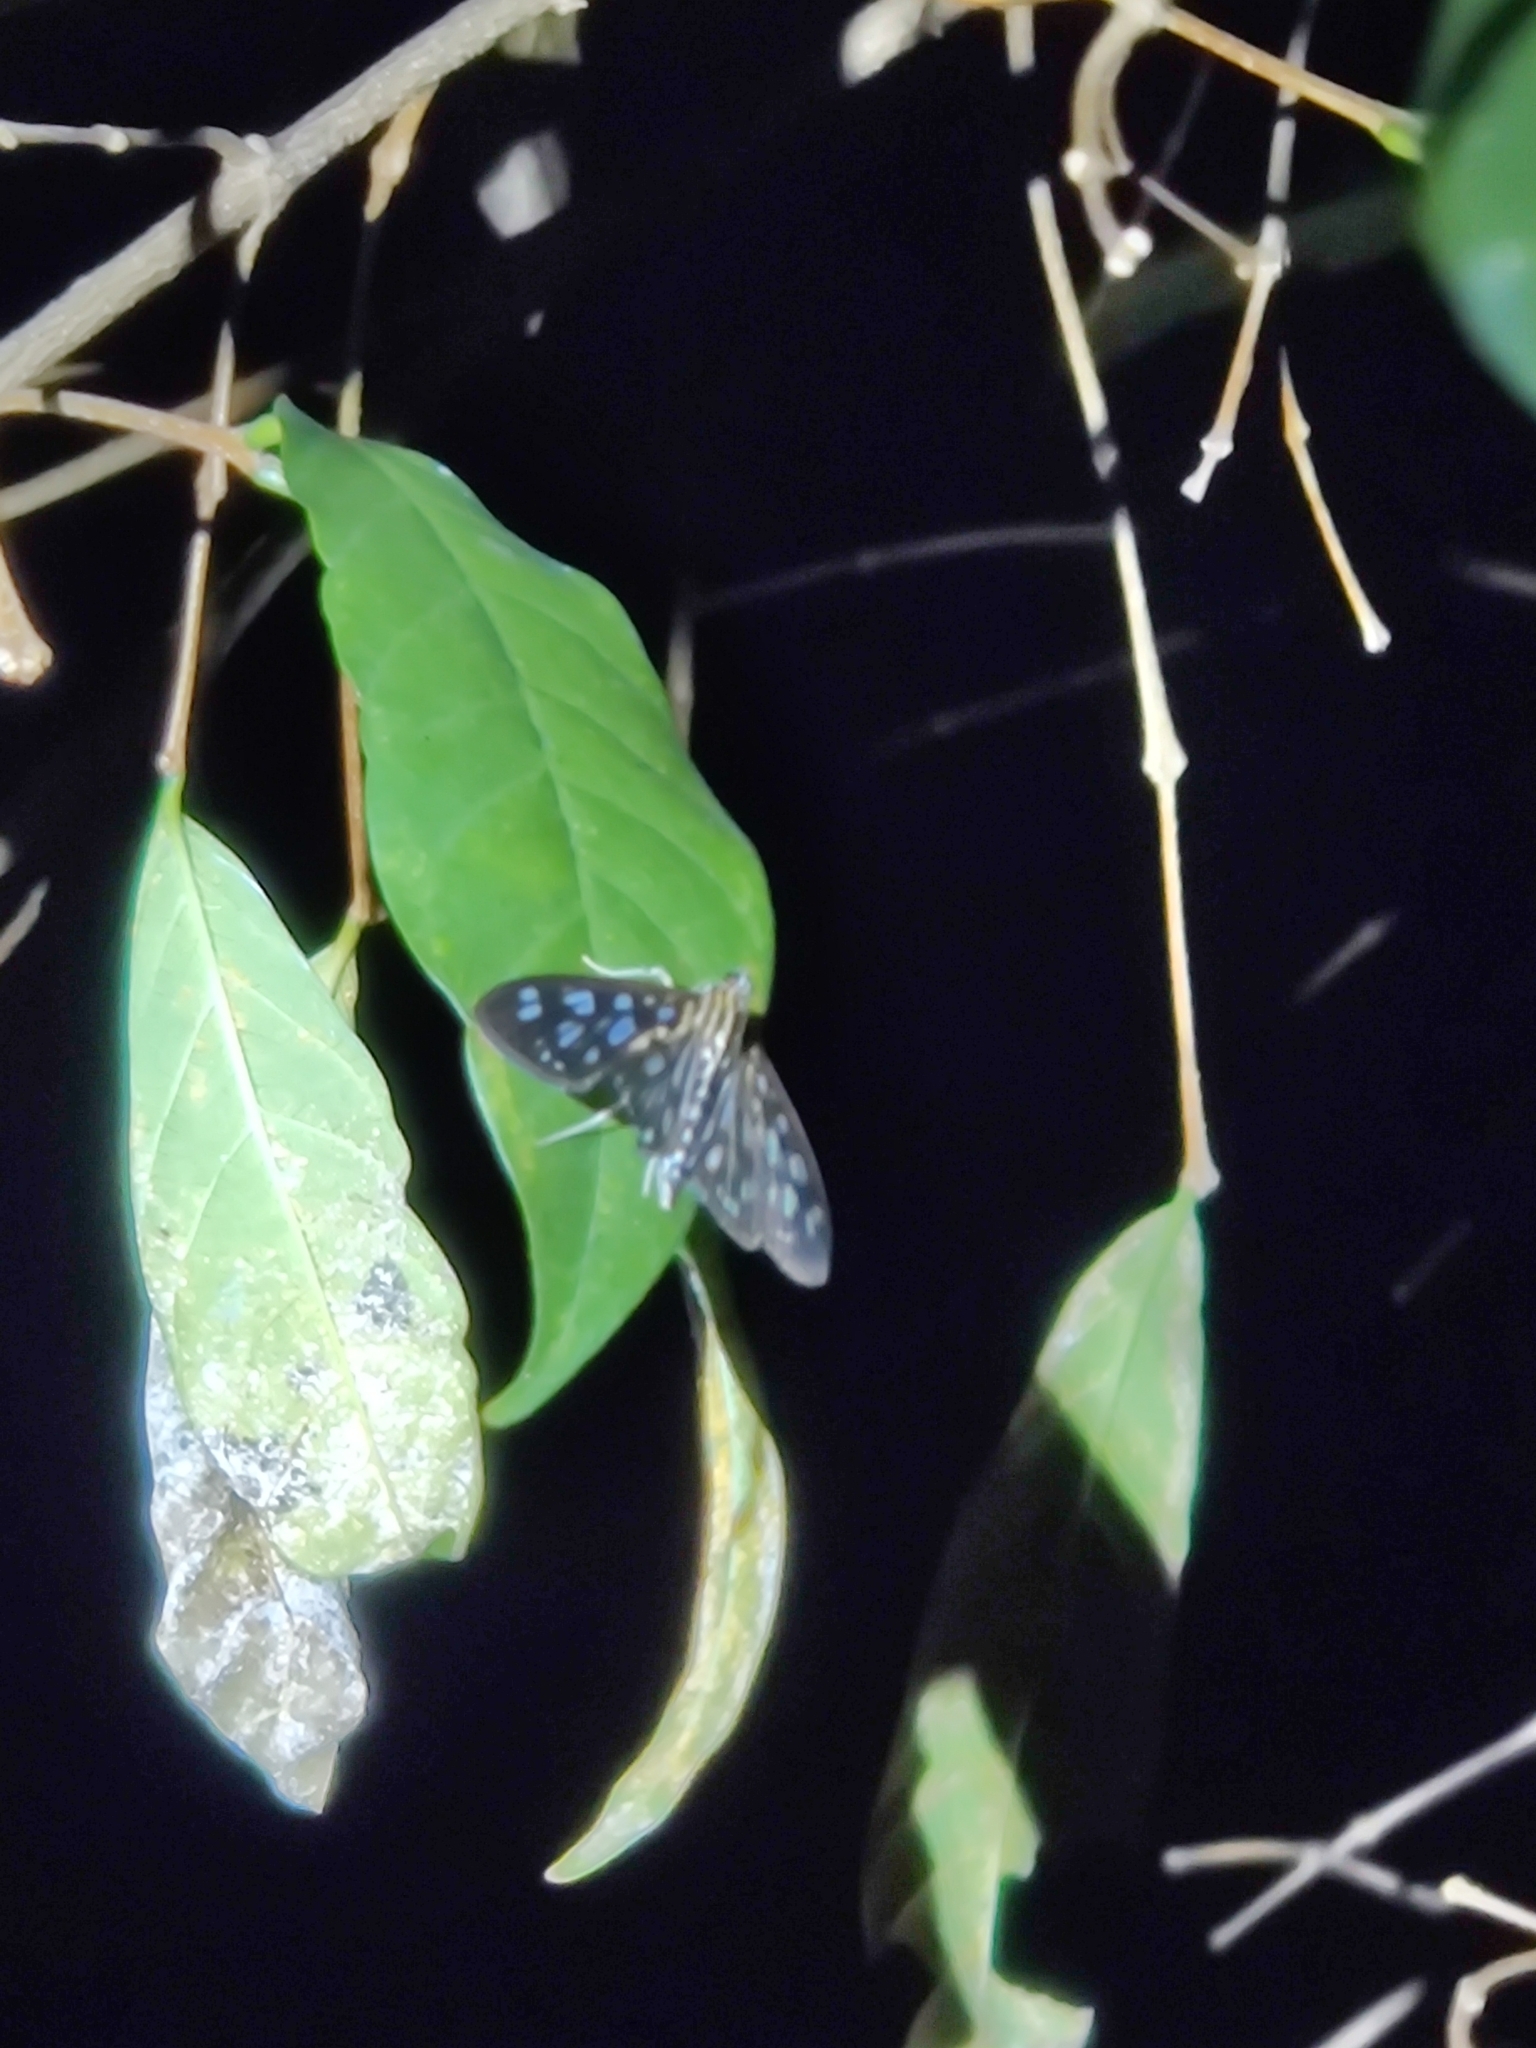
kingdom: Animalia
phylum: Arthropoda
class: Insecta
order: Lepidoptera
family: Crambidae
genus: Pygospila
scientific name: Pygospila tyres
